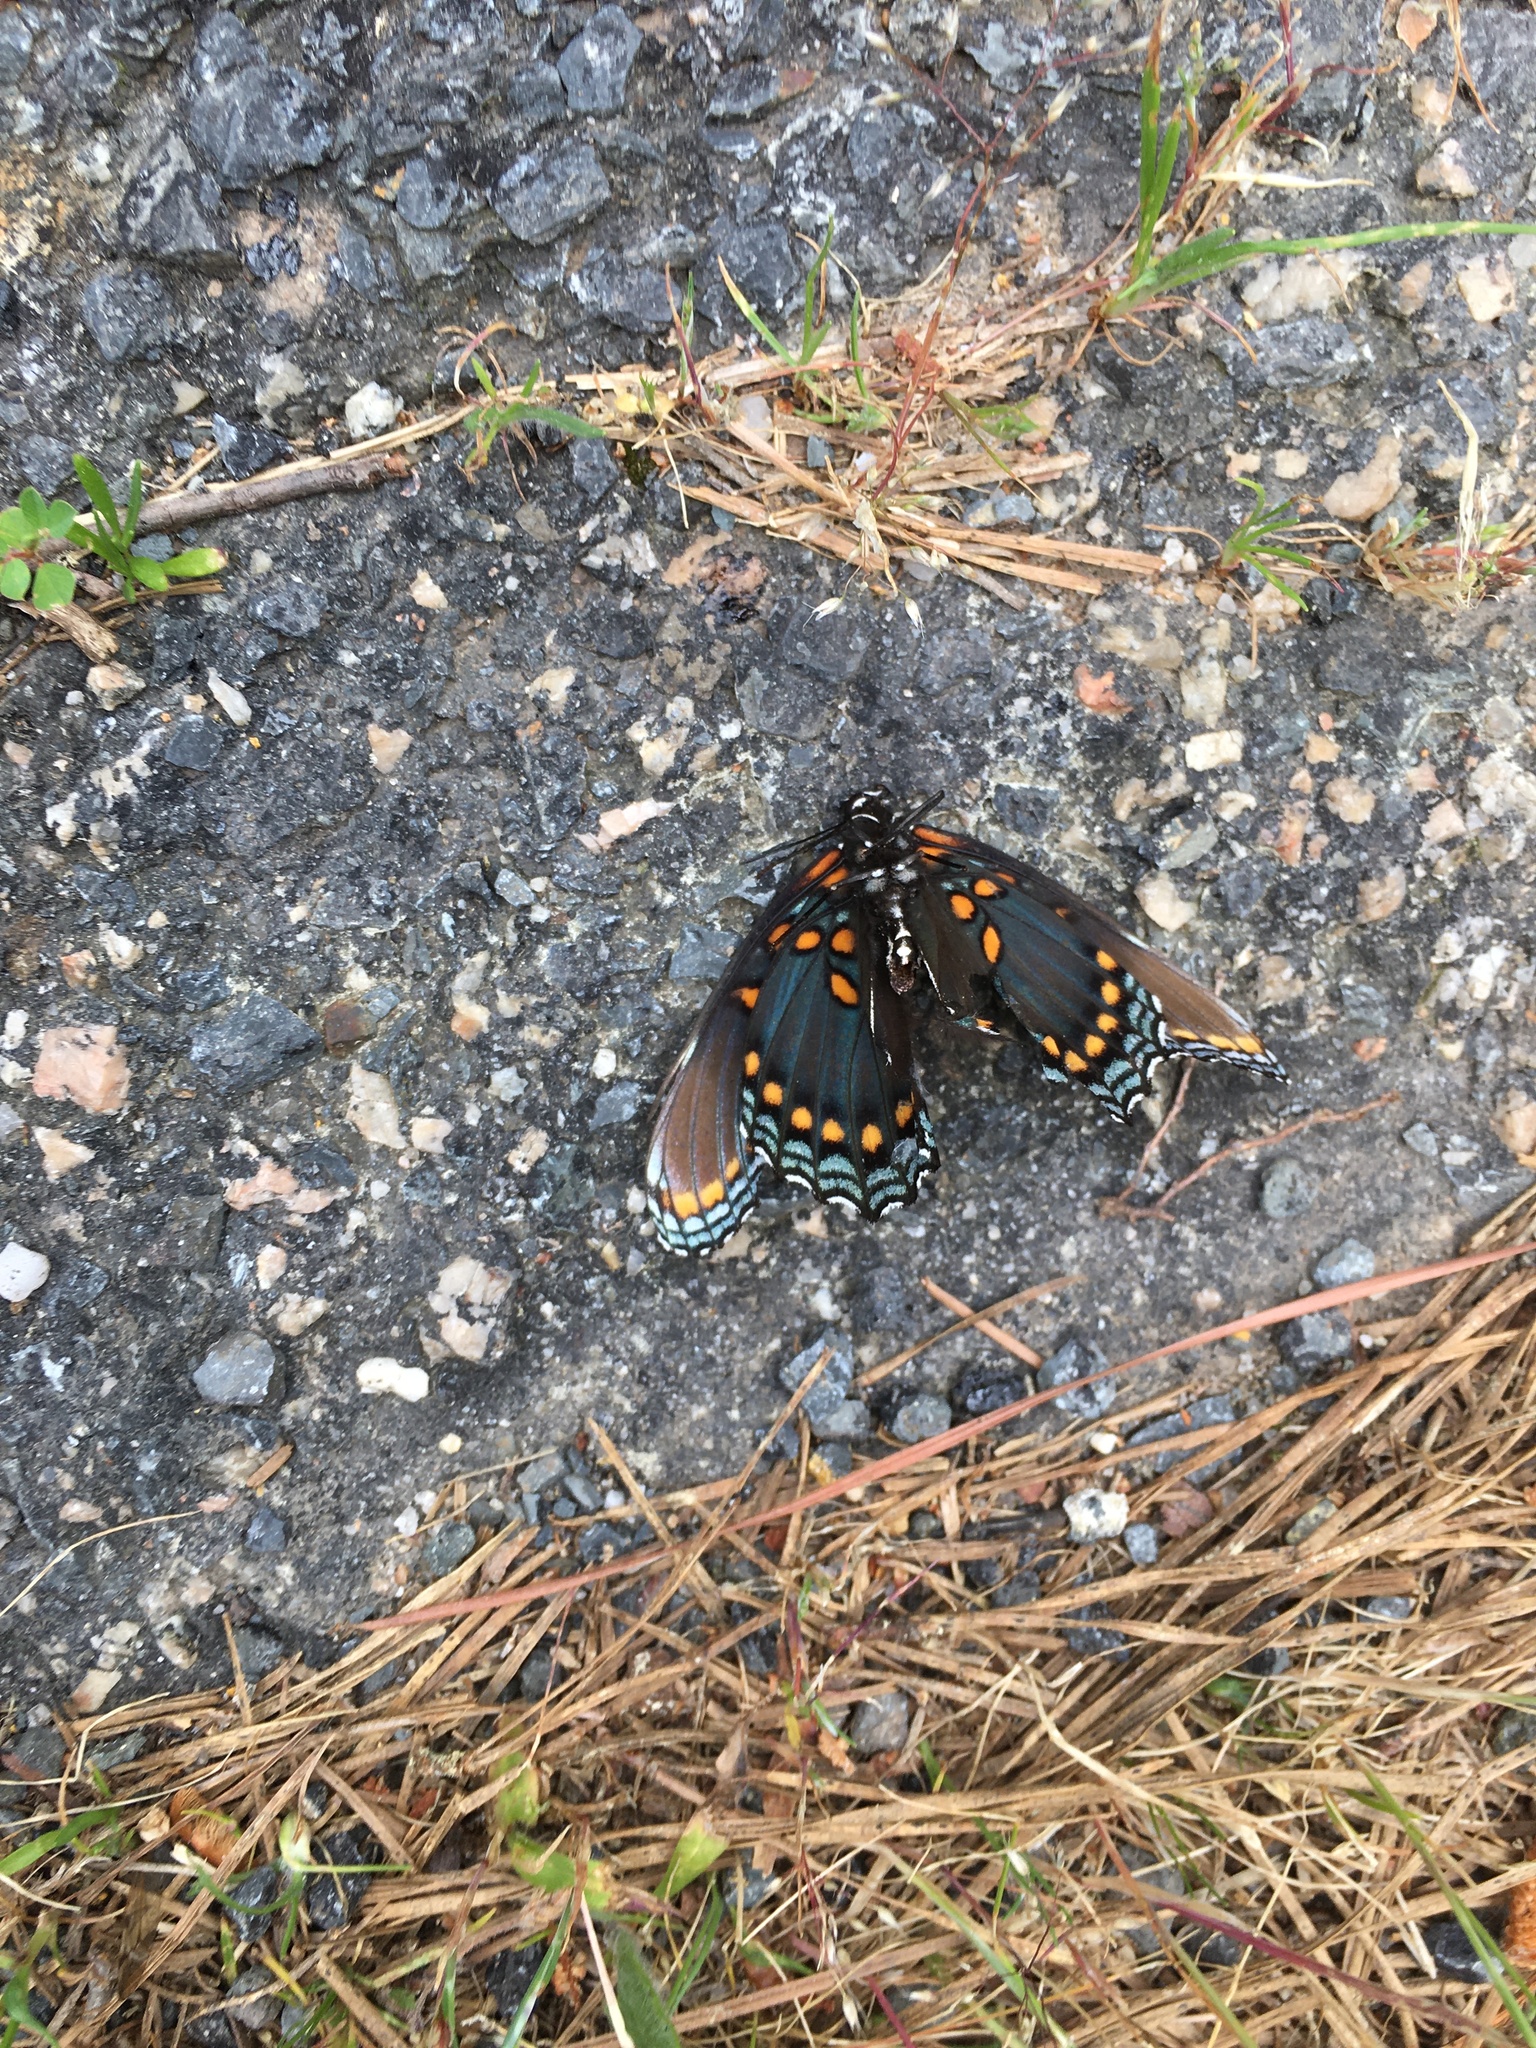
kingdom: Animalia
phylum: Arthropoda
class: Insecta
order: Lepidoptera
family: Nymphalidae
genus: Limenitis
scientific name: Limenitis astyanax
